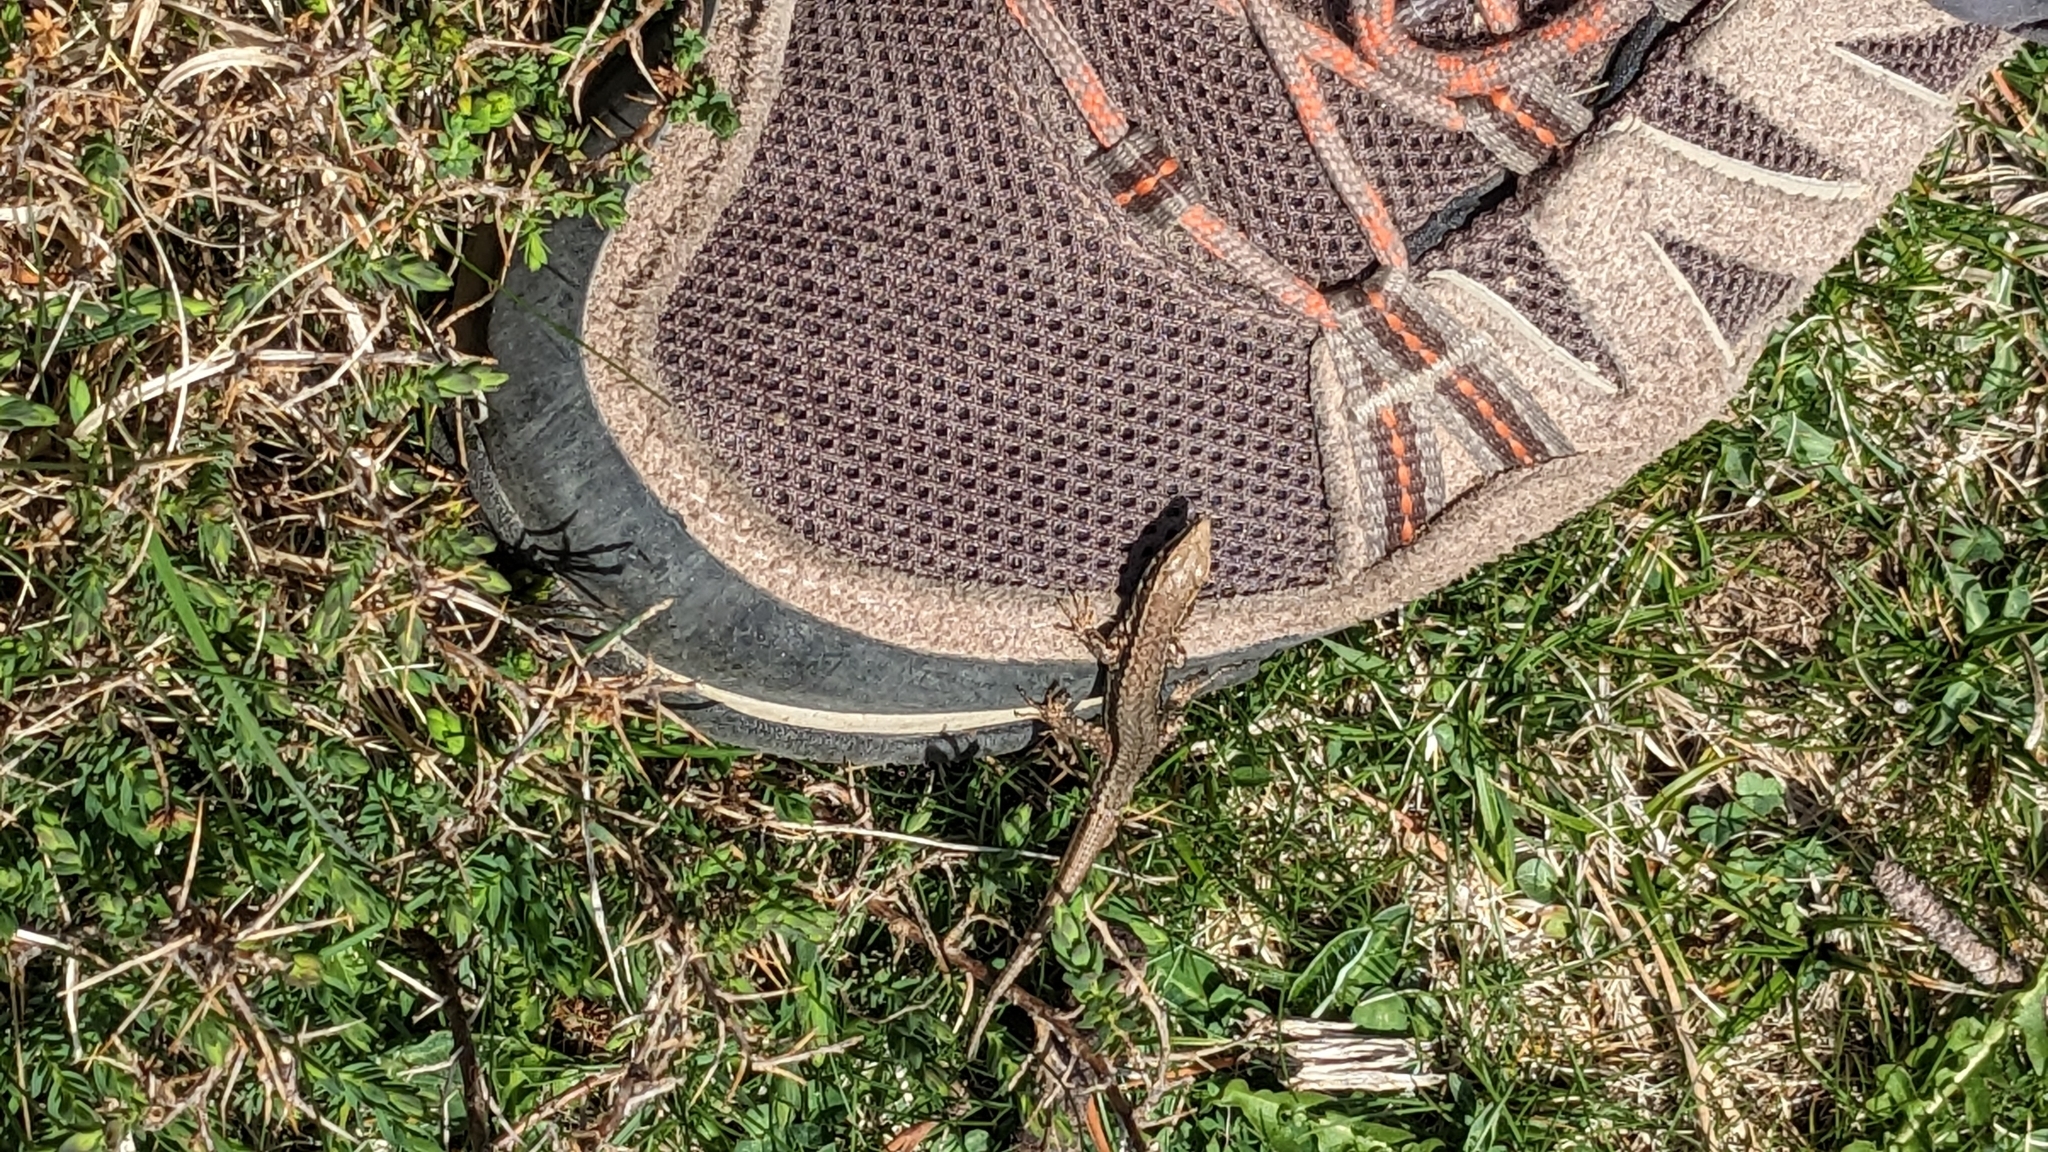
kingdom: Animalia
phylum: Chordata
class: Squamata
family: Lacertidae
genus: Podarcis
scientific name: Podarcis muralis
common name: Common wall lizard
